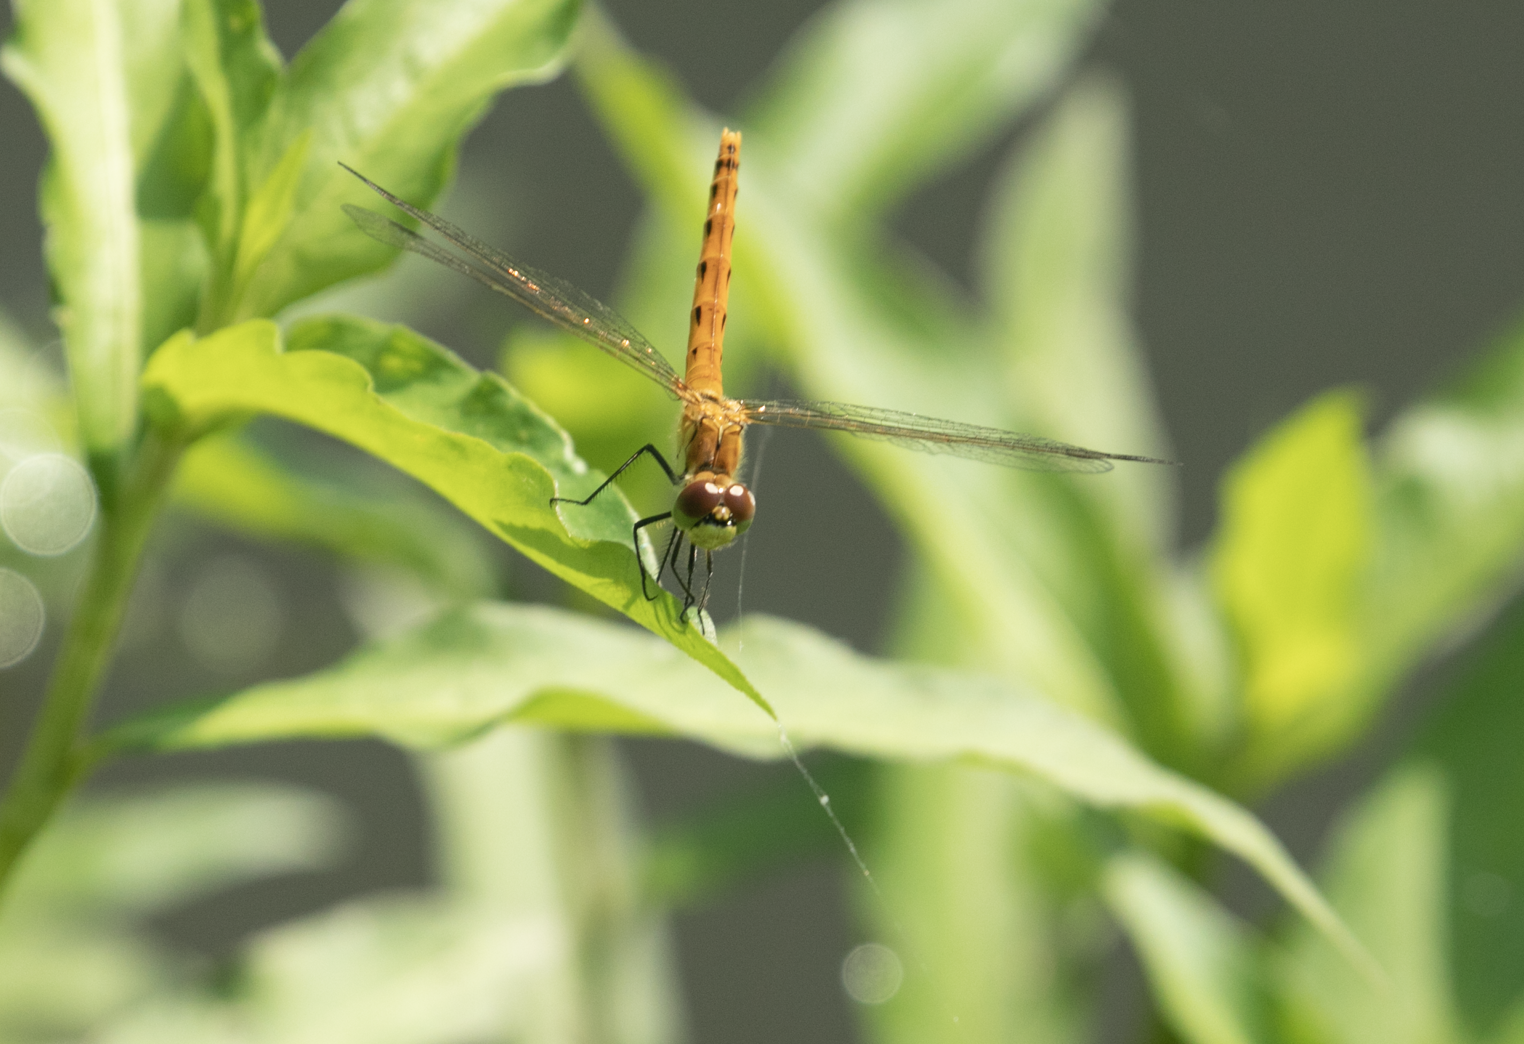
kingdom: Animalia
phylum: Arthropoda
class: Insecta
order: Odonata
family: Libellulidae
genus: Sympetrum
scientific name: Sympetrum depressiusculum
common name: Spotted darter
